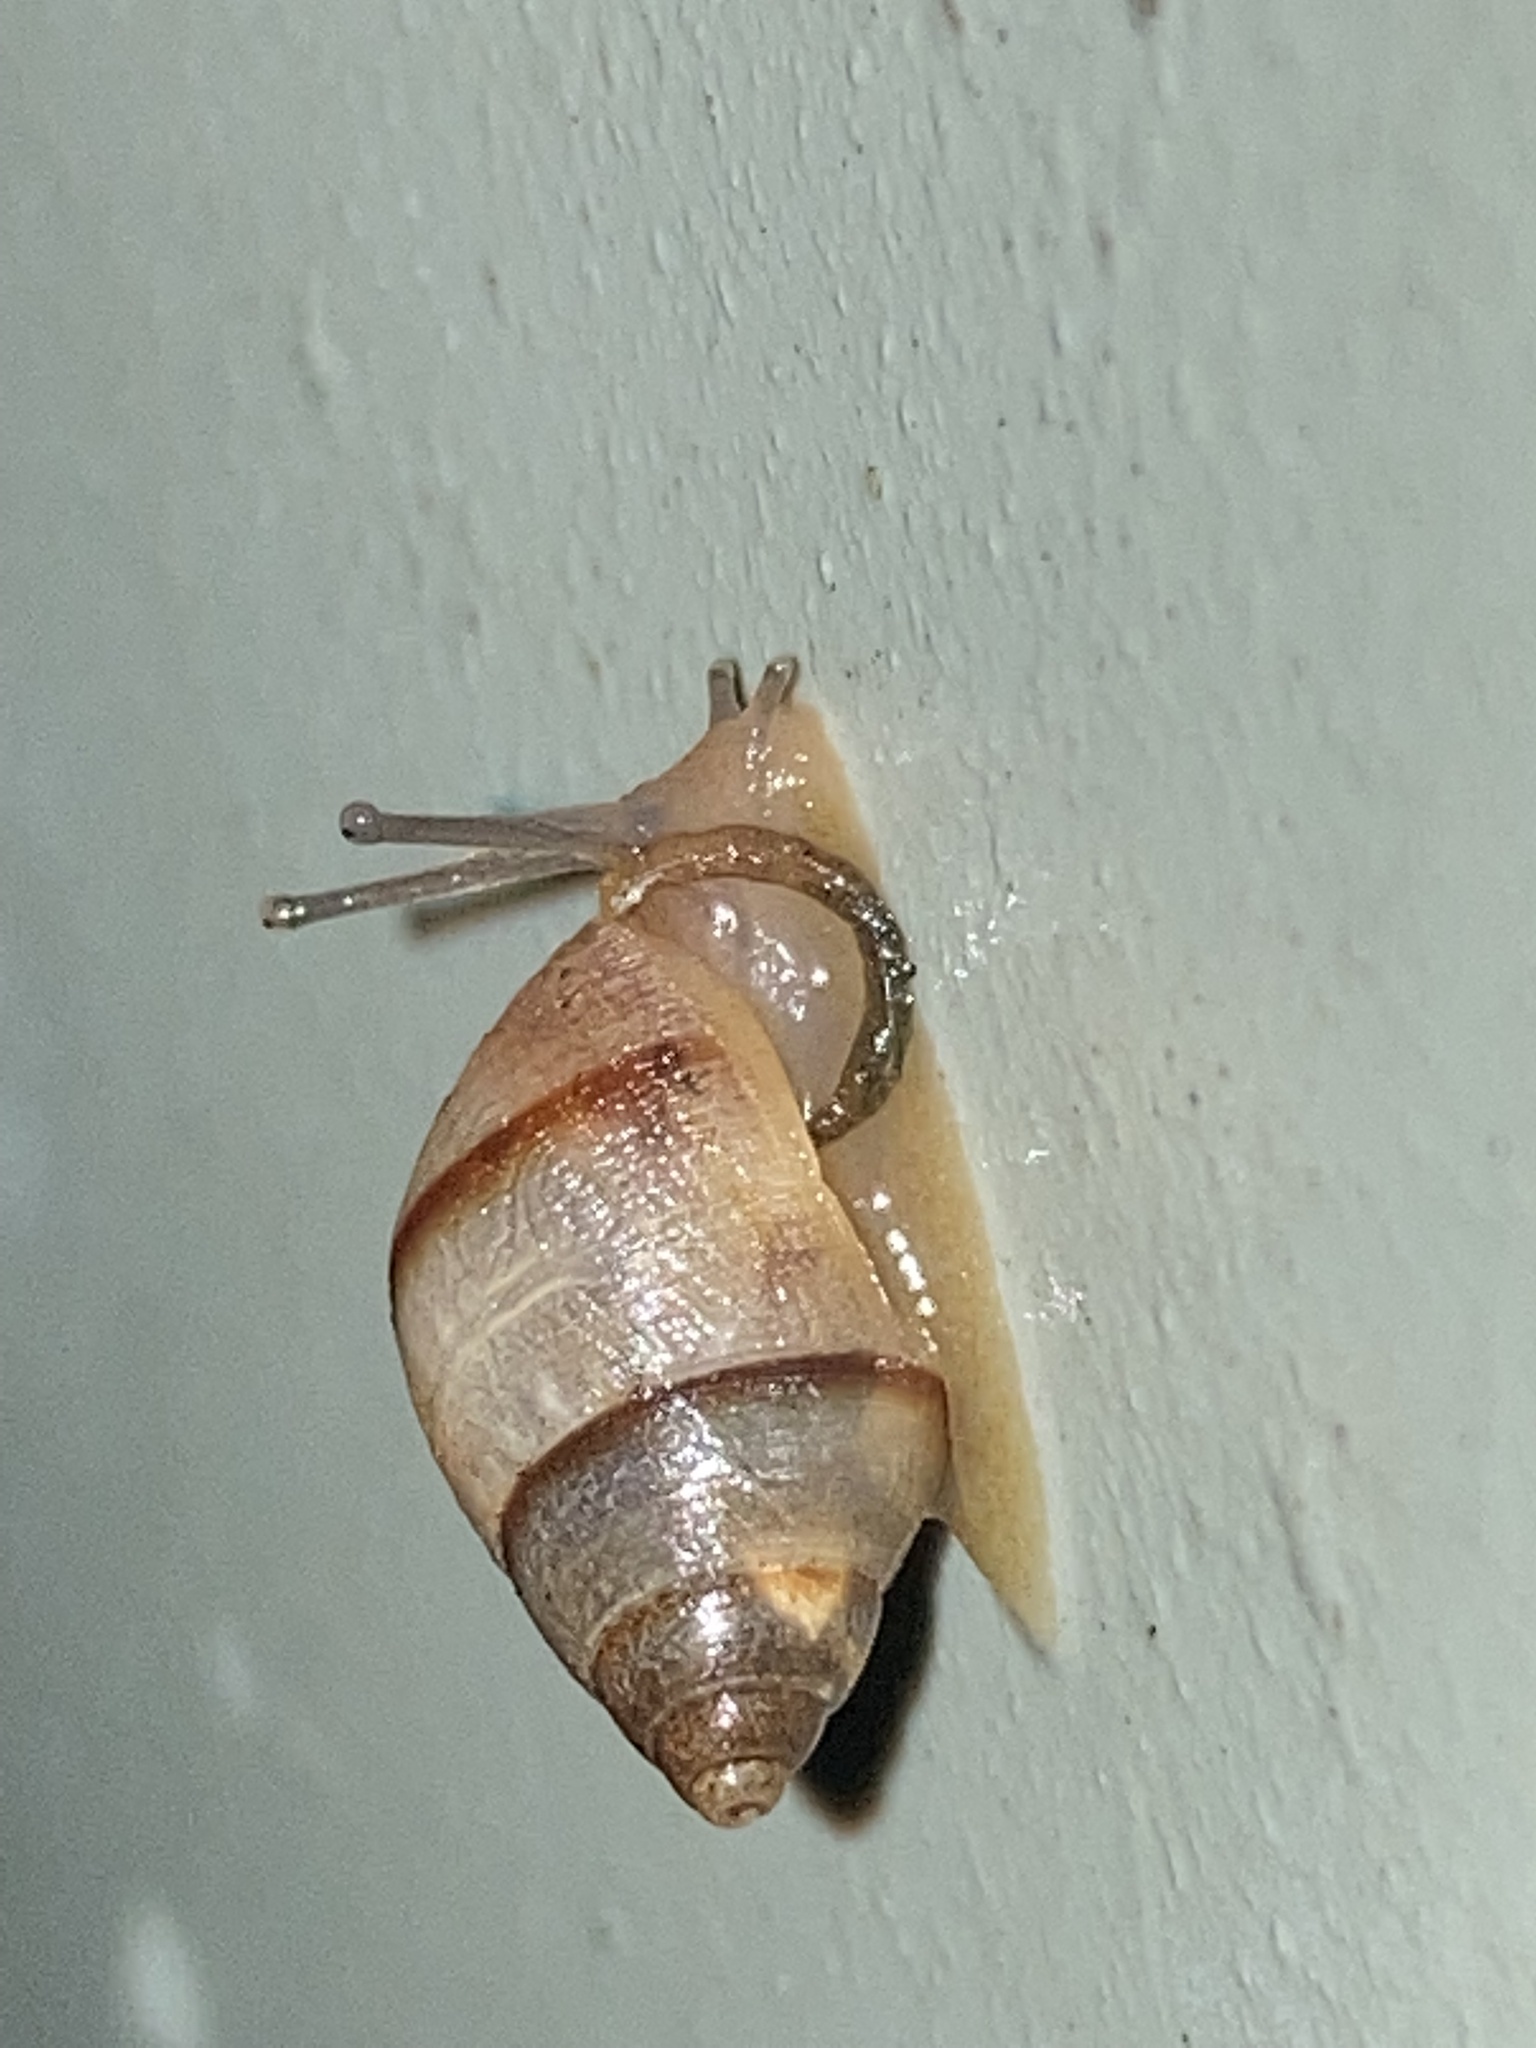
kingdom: Animalia
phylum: Mollusca
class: Gastropoda
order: Stylommatophora
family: Bulimulidae
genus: Bulimulus
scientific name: Bulimulus guadalupensis
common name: West indian bulimulus
